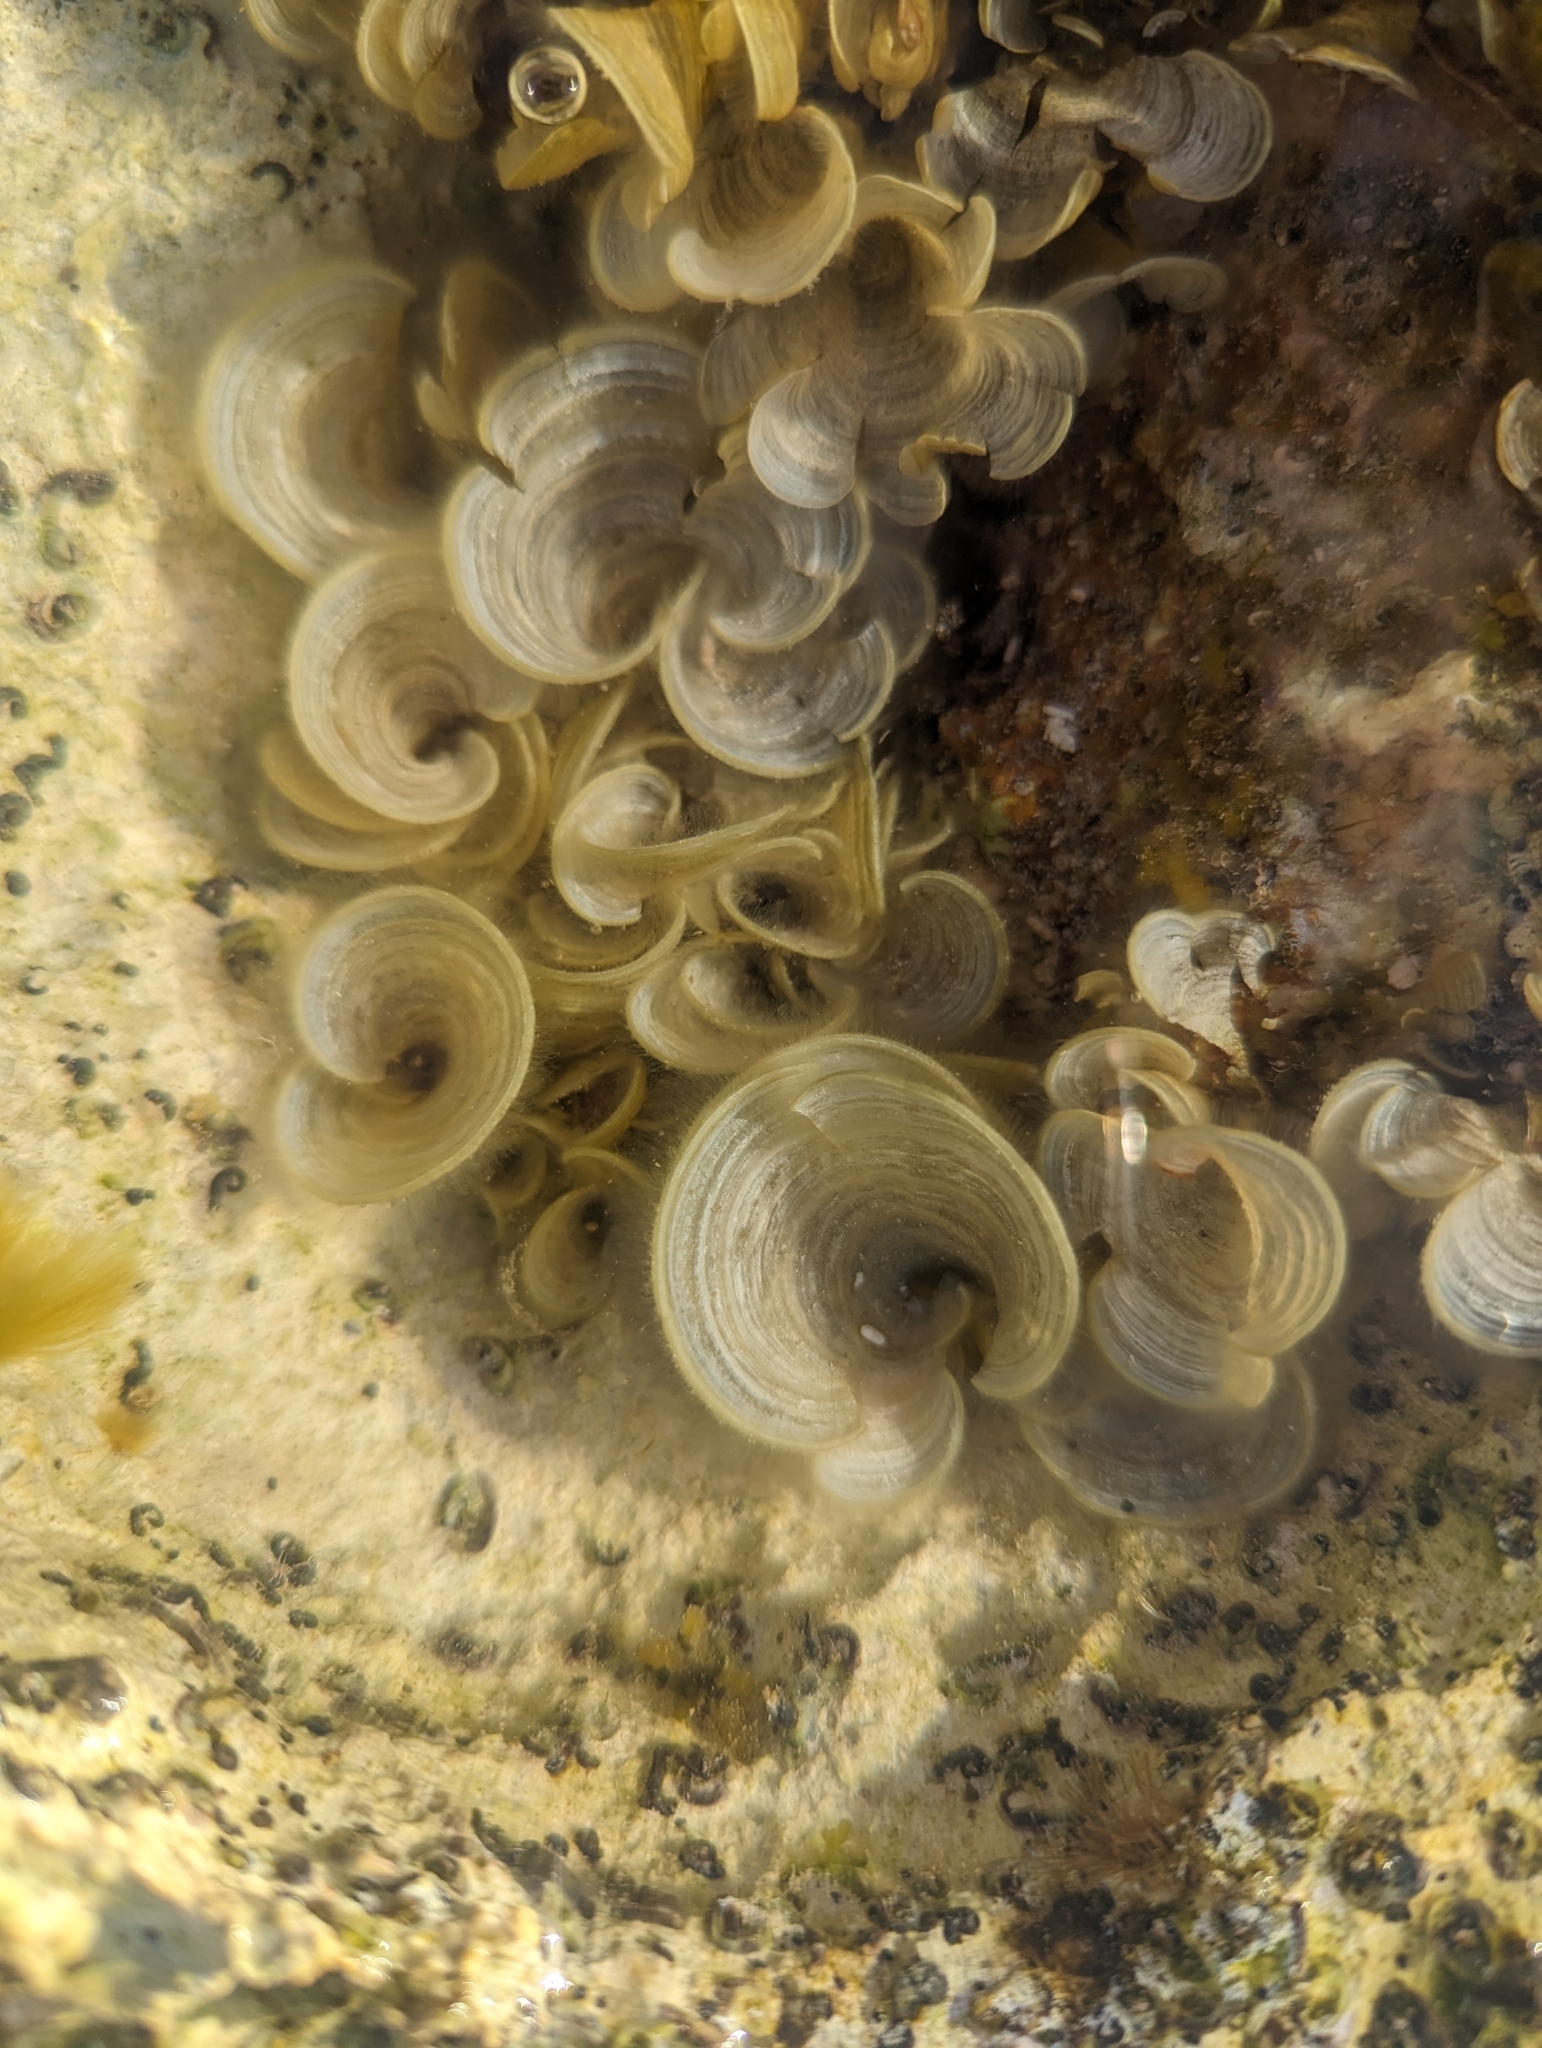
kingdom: Chromista
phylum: Ochrophyta
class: Phaeophyceae
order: Dictyotales
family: Dictyotaceae
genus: Padina
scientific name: Padina sanctae-crucis
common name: White scroll algae
